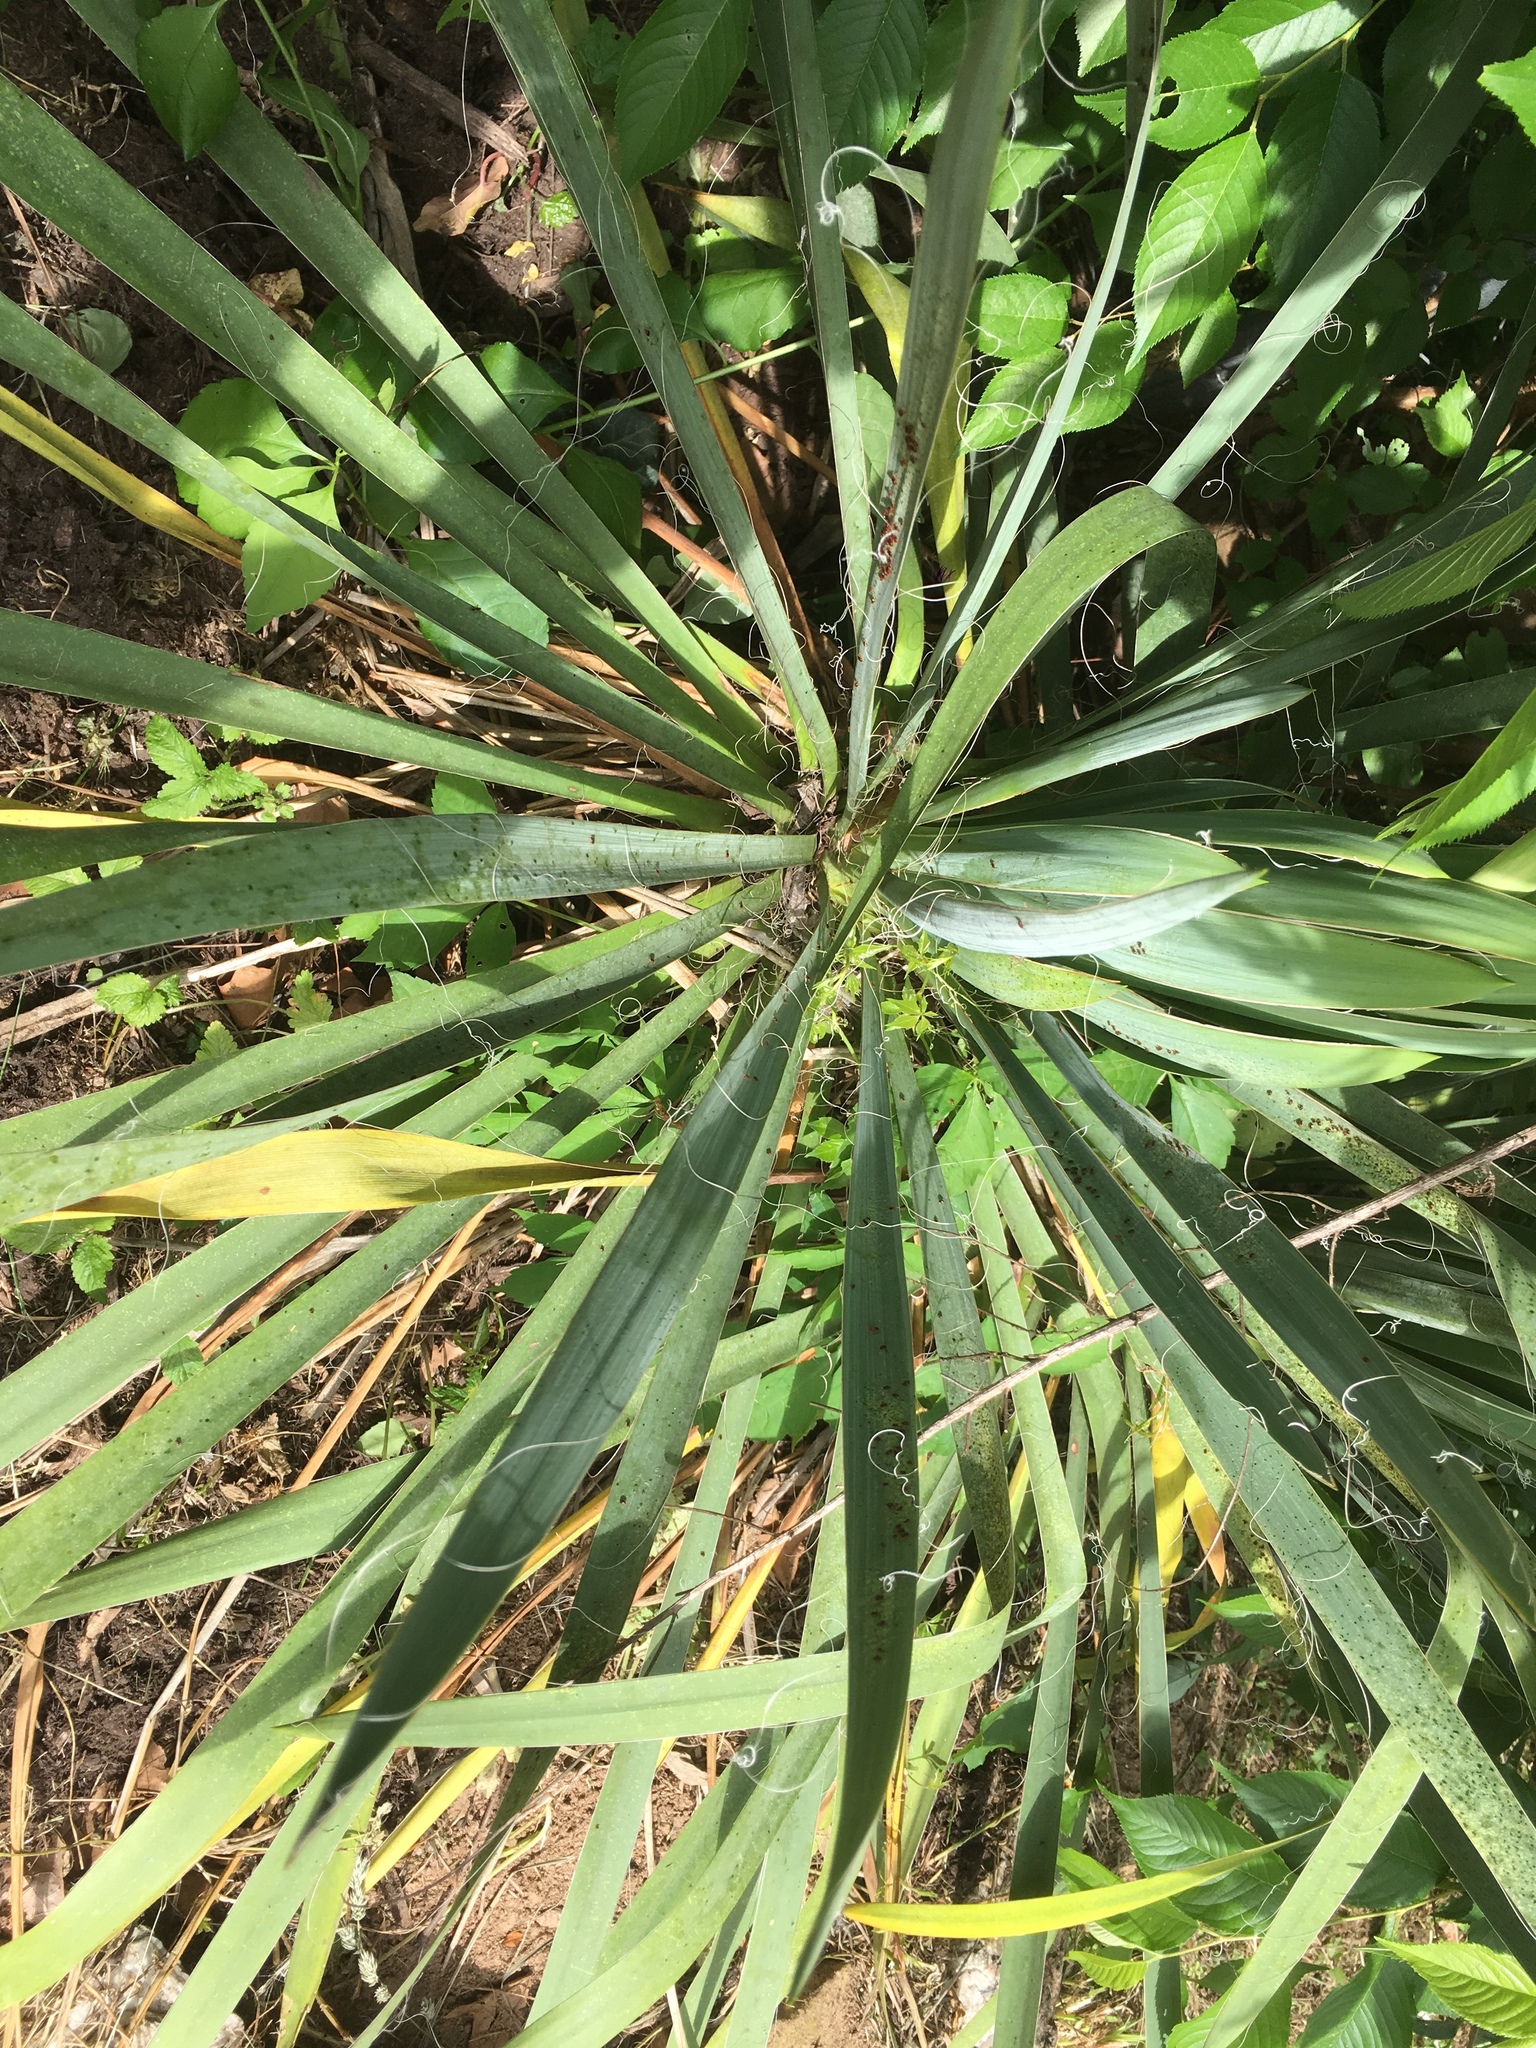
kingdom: Plantae
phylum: Tracheophyta
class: Liliopsida
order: Asparagales
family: Asparagaceae
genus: Yucca
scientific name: Yucca filamentosa
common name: Adam's-needle
